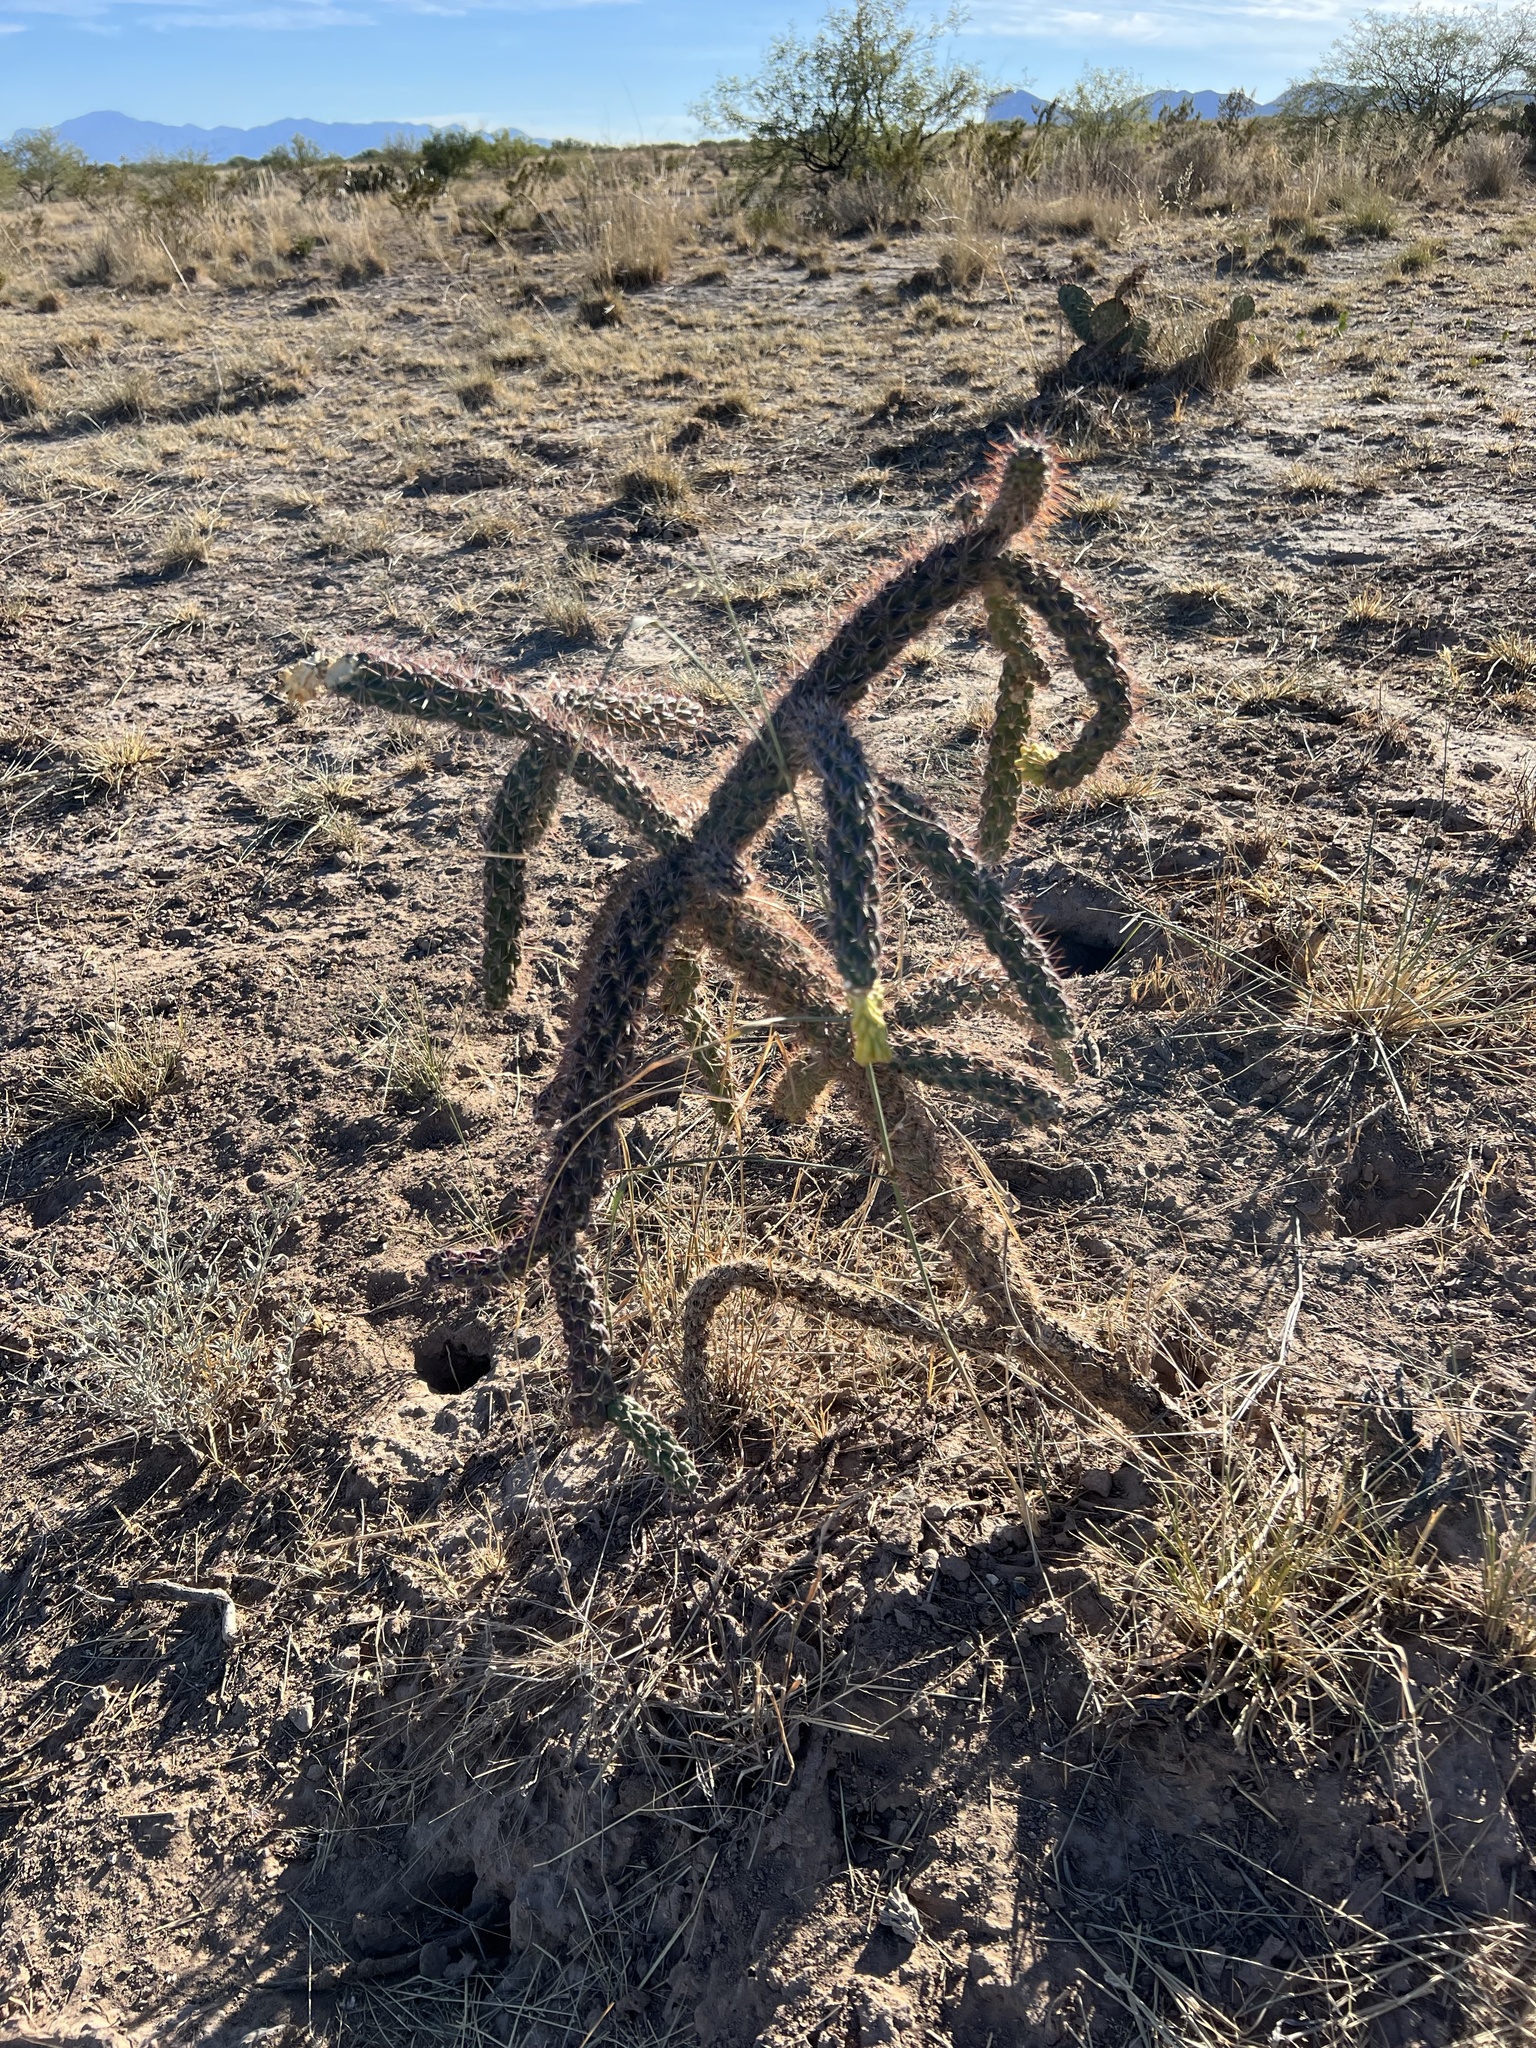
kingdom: Plantae
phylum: Tracheophyta
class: Magnoliopsida
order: Caryophyllales
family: Cactaceae
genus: Cylindropuntia
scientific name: Cylindropuntia imbricata
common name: Candelabrum cactus
